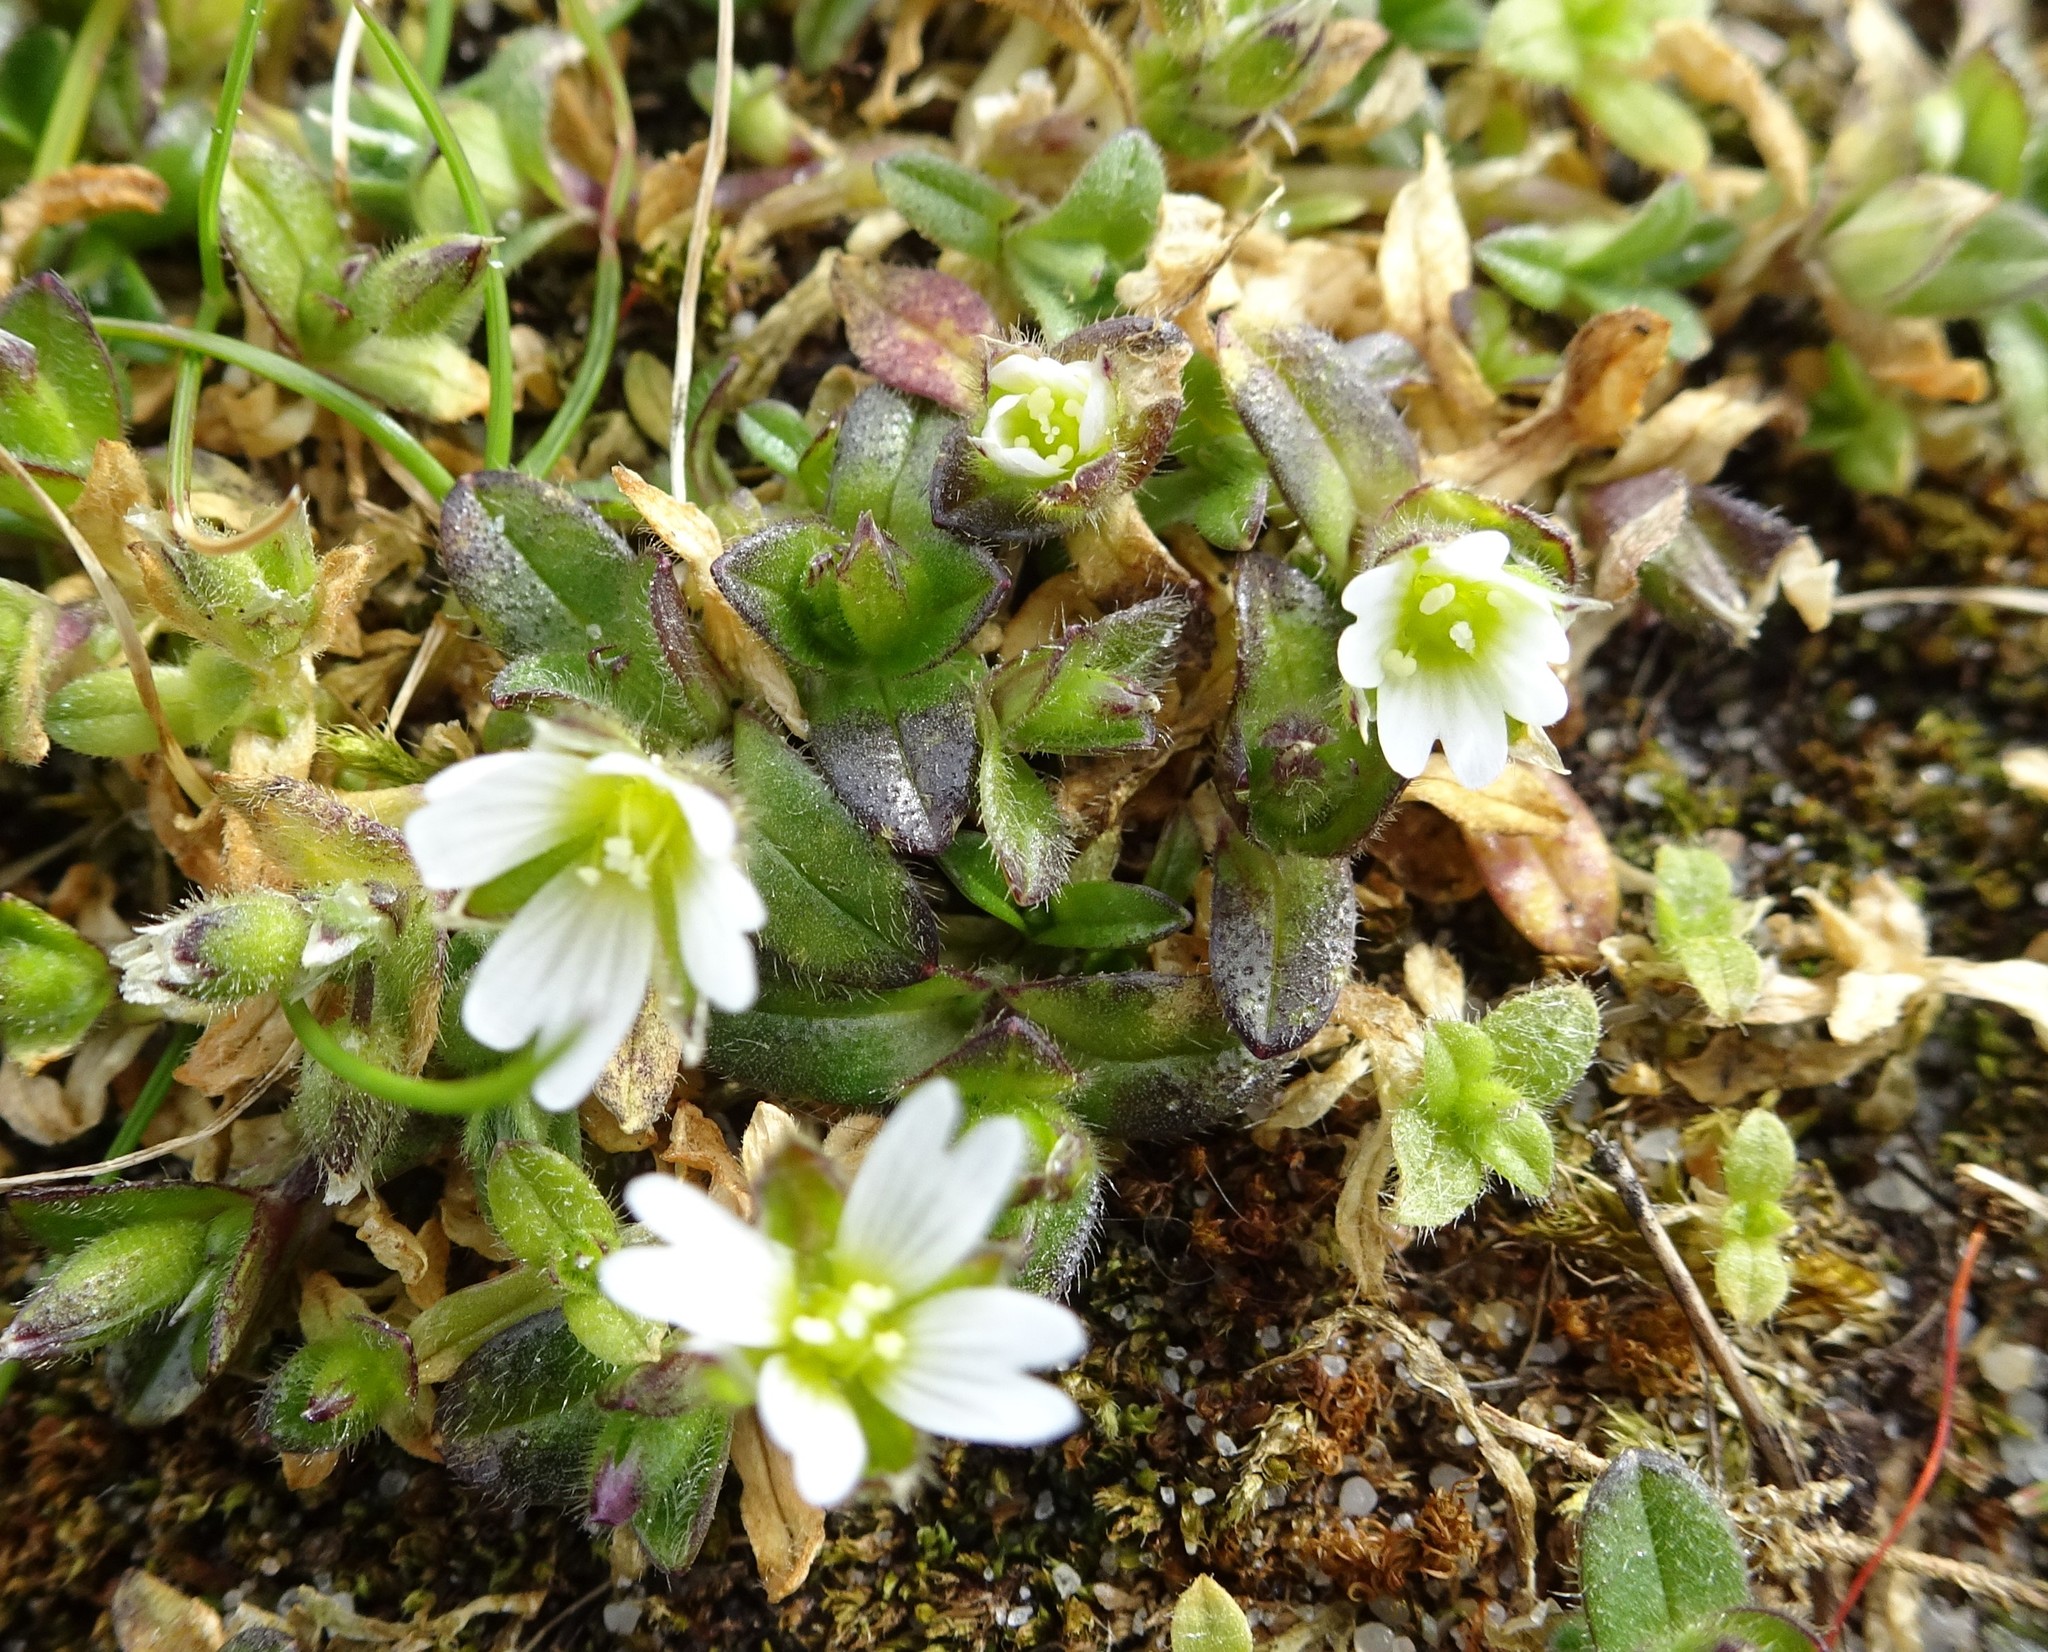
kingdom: Plantae
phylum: Tracheophyta
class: Magnoliopsida
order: Caryophyllales
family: Caryophyllaceae
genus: Cerastium
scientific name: Cerastium semidecandrum
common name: Little mouse-ear
